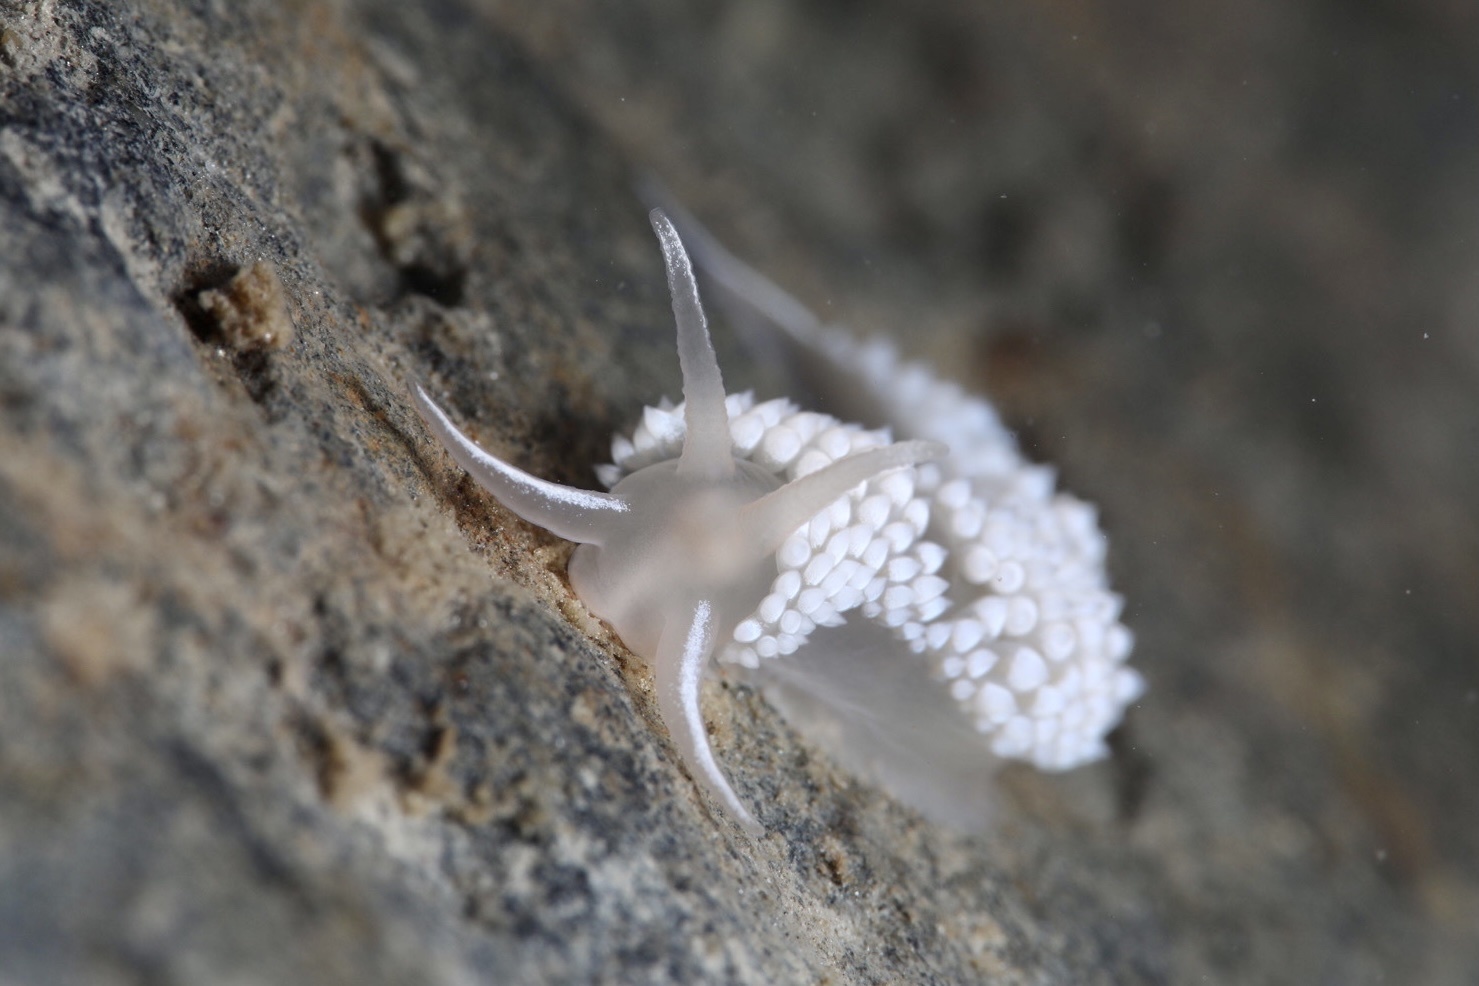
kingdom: Animalia
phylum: Mollusca
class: Gastropoda
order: Nudibranchia
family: Coryphellidae
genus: Coryphella
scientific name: Coryphella verrucosa
